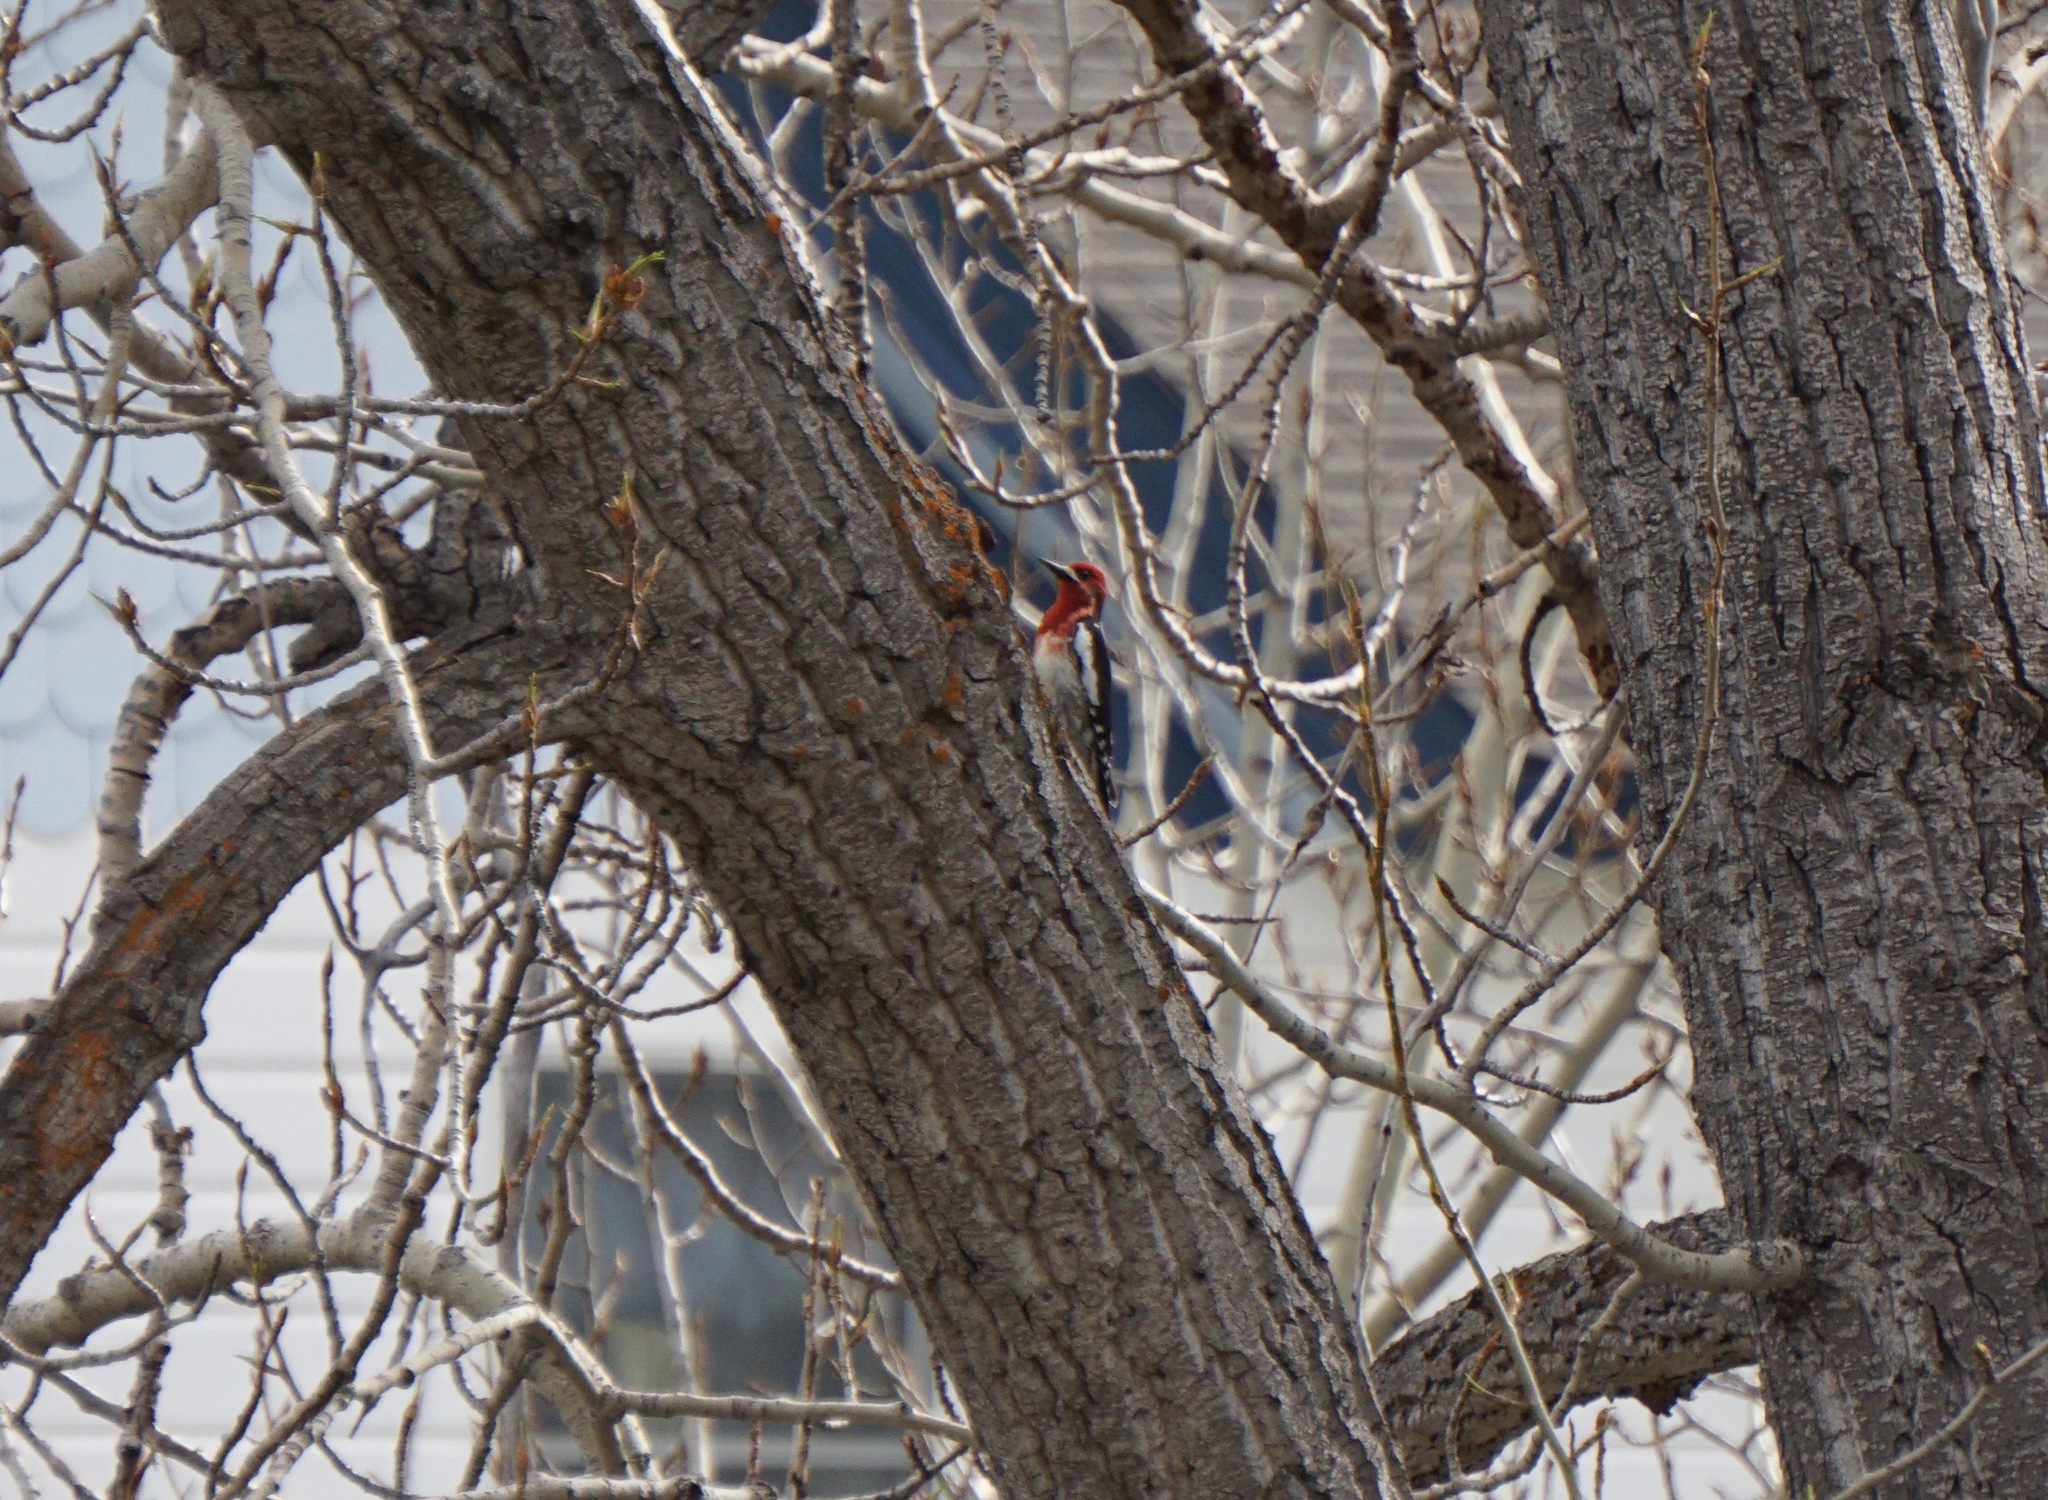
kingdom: Animalia
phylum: Chordata
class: Aves
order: Piciformes
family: Picidae
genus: Sphyrapicus
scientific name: Sphyrapicus ruber
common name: Red-breasted sapsucker
